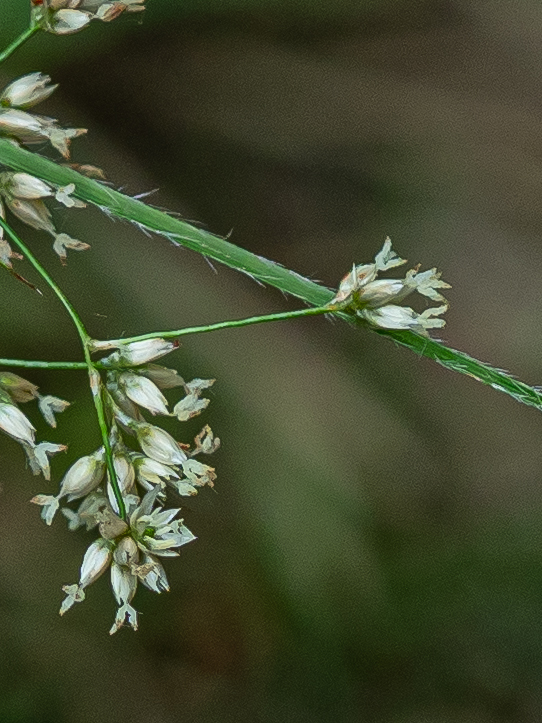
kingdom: Plantae
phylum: Tracheophyta
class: Liliopsida
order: Poales
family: Juncaceae
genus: Luzula
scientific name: Luzula luzuloides
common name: White wood-rush
